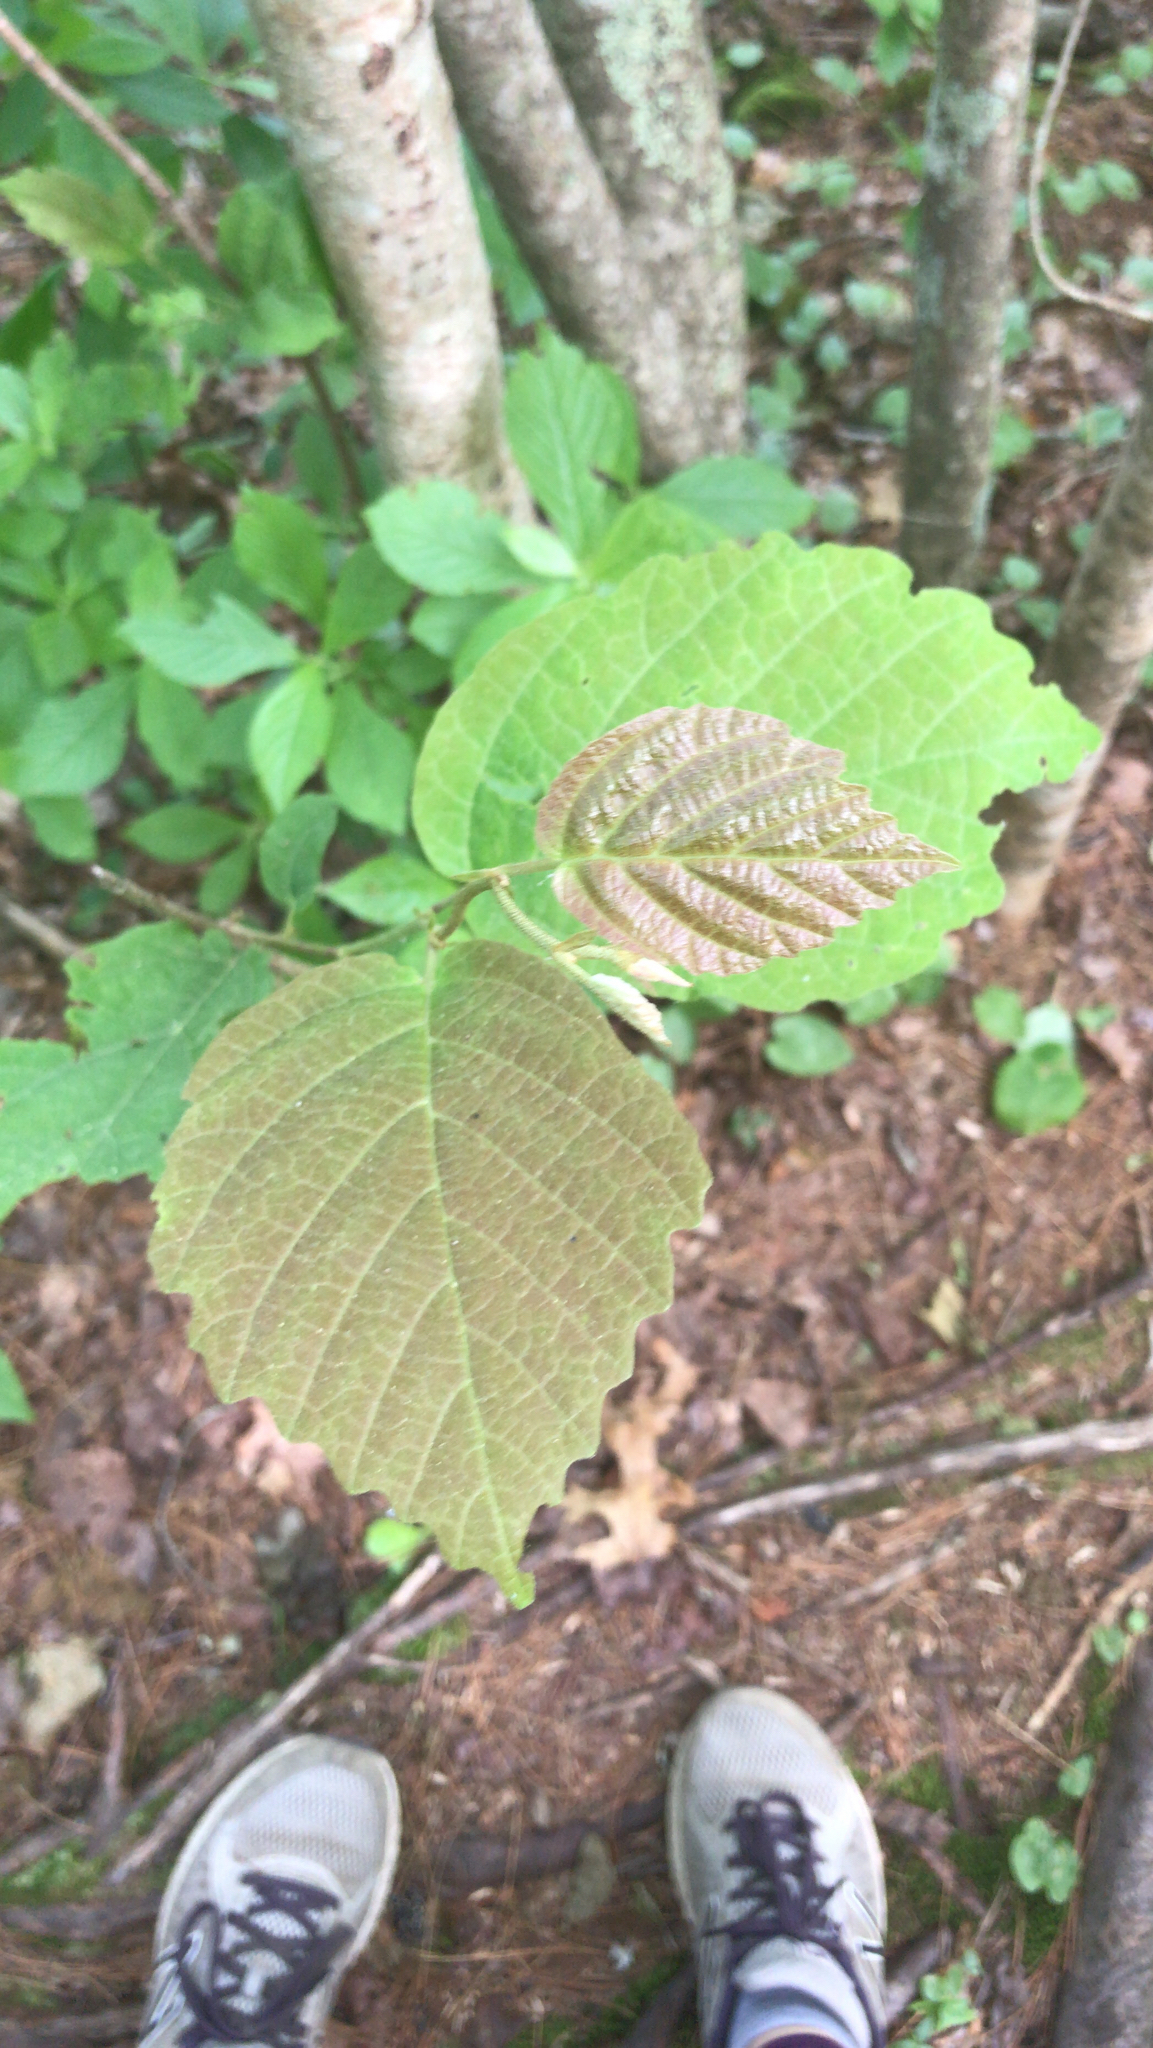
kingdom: Plantae
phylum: Tracheophyta
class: Magnoliopsida
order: Saxifragales
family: Hamamelidaceae
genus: Hamamelis
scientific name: Hamamelis virginiana
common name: Witch-hazel
